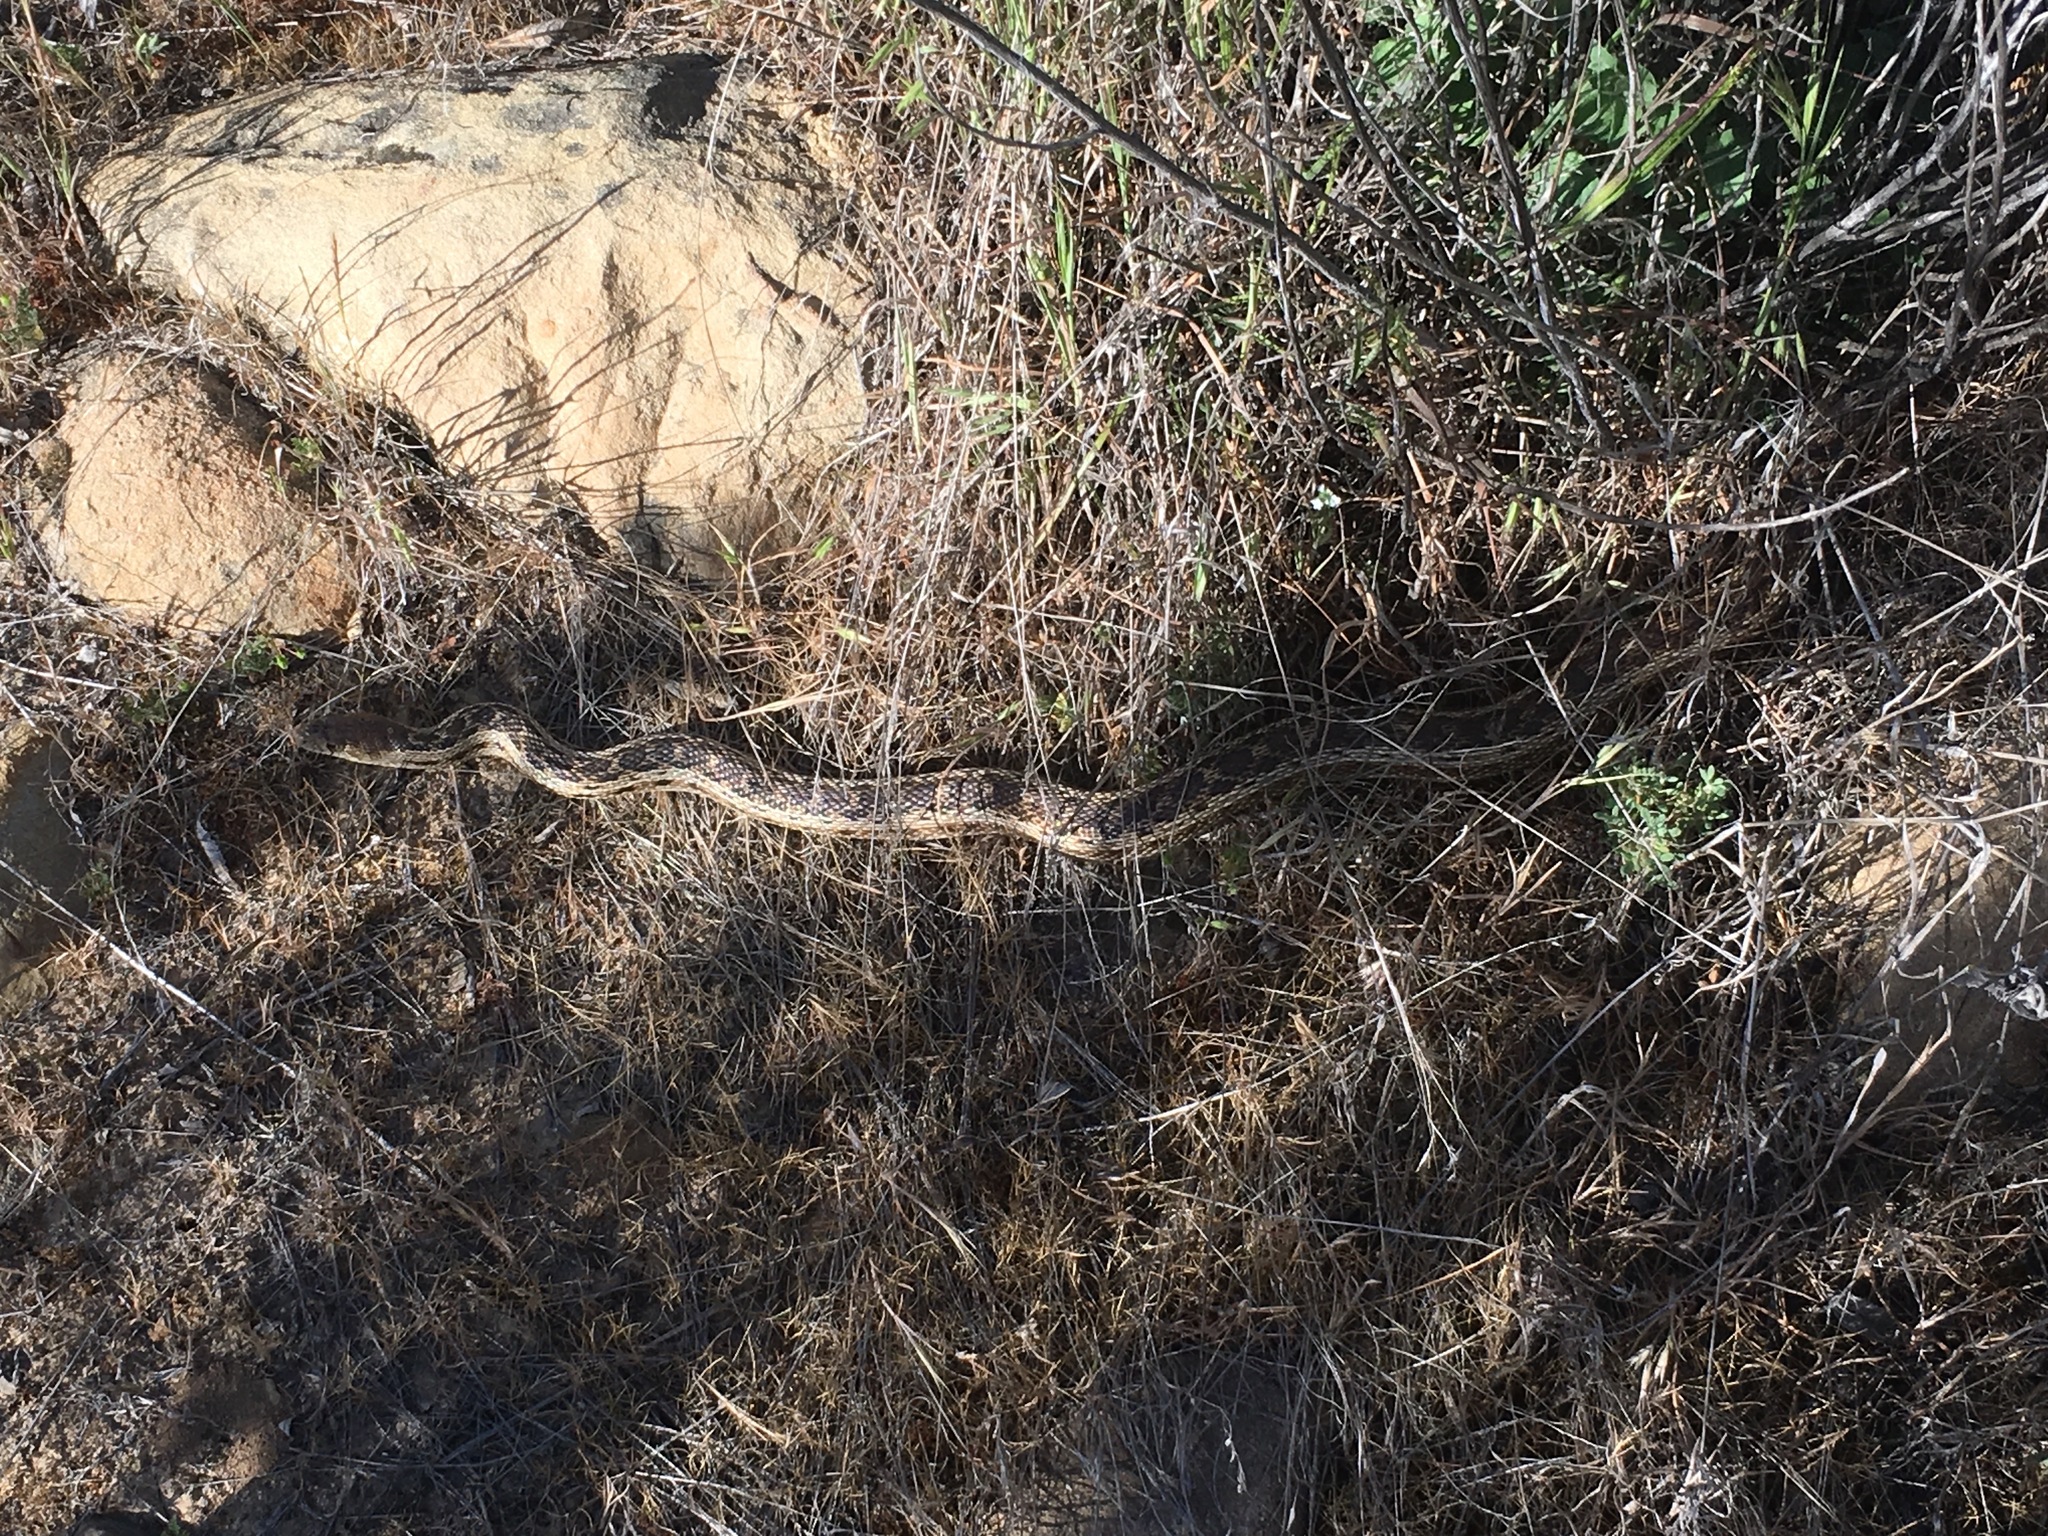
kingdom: Animalia
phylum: Chordata
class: Squamata
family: Colubridae
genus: Pituophis
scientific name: Pituophis catenifer
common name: Gopher snake
